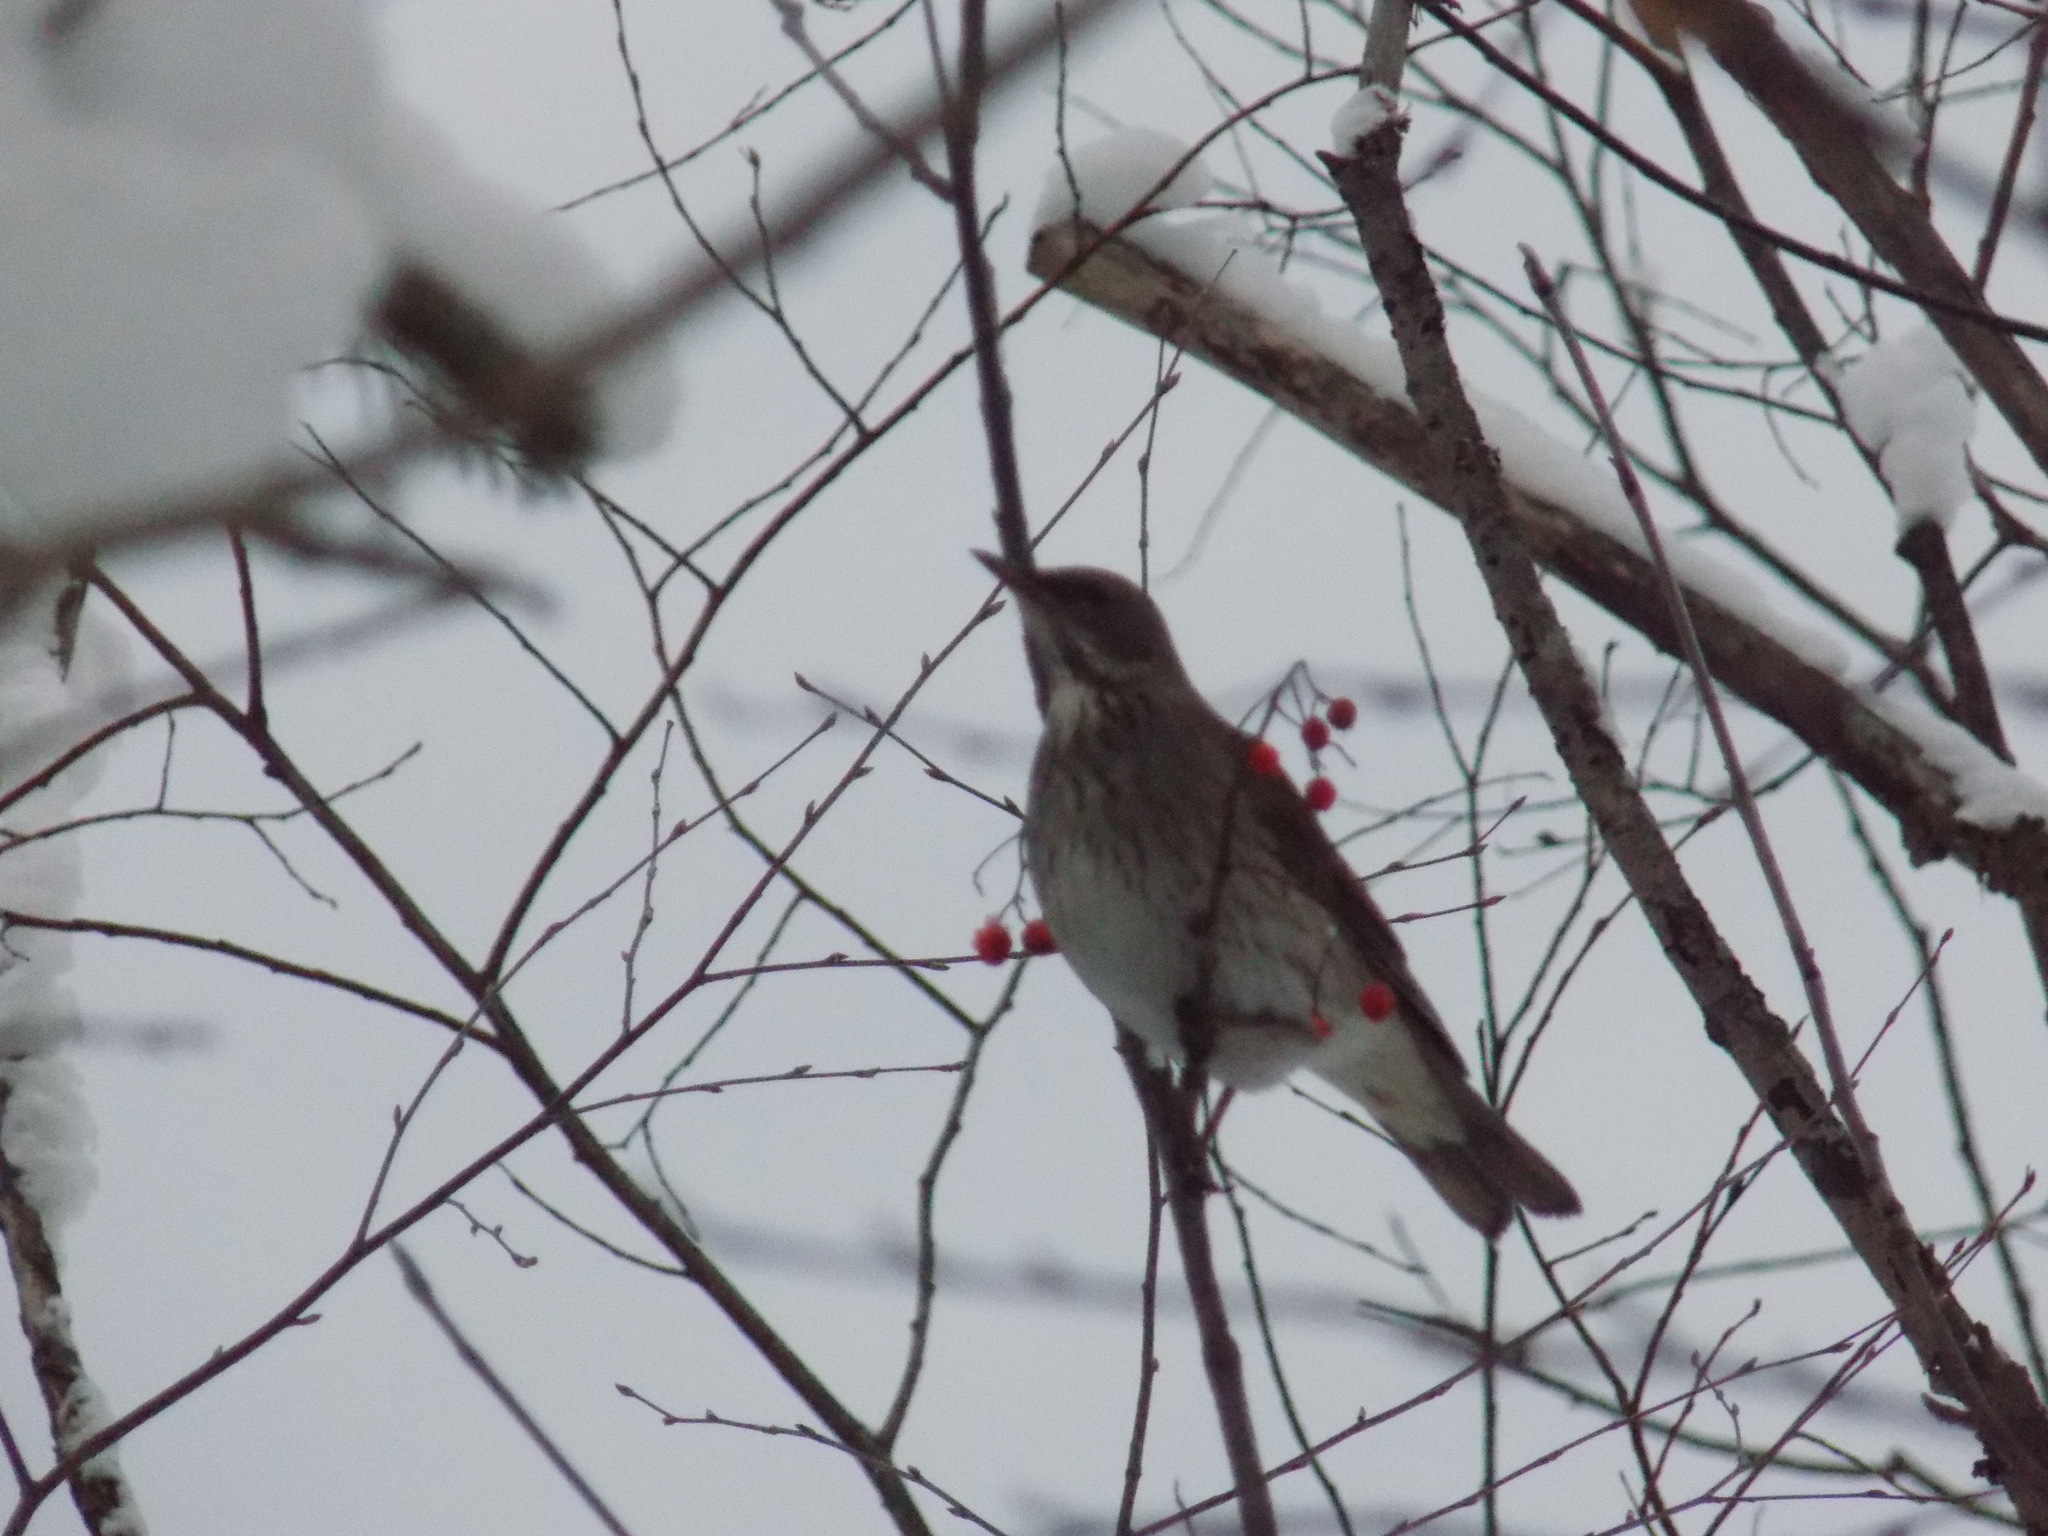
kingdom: Animalia
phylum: Chordata
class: Aves
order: Passeriformes
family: Turdidae
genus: Turdus
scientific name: Turdus atrogularis
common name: Black-throated thrush
